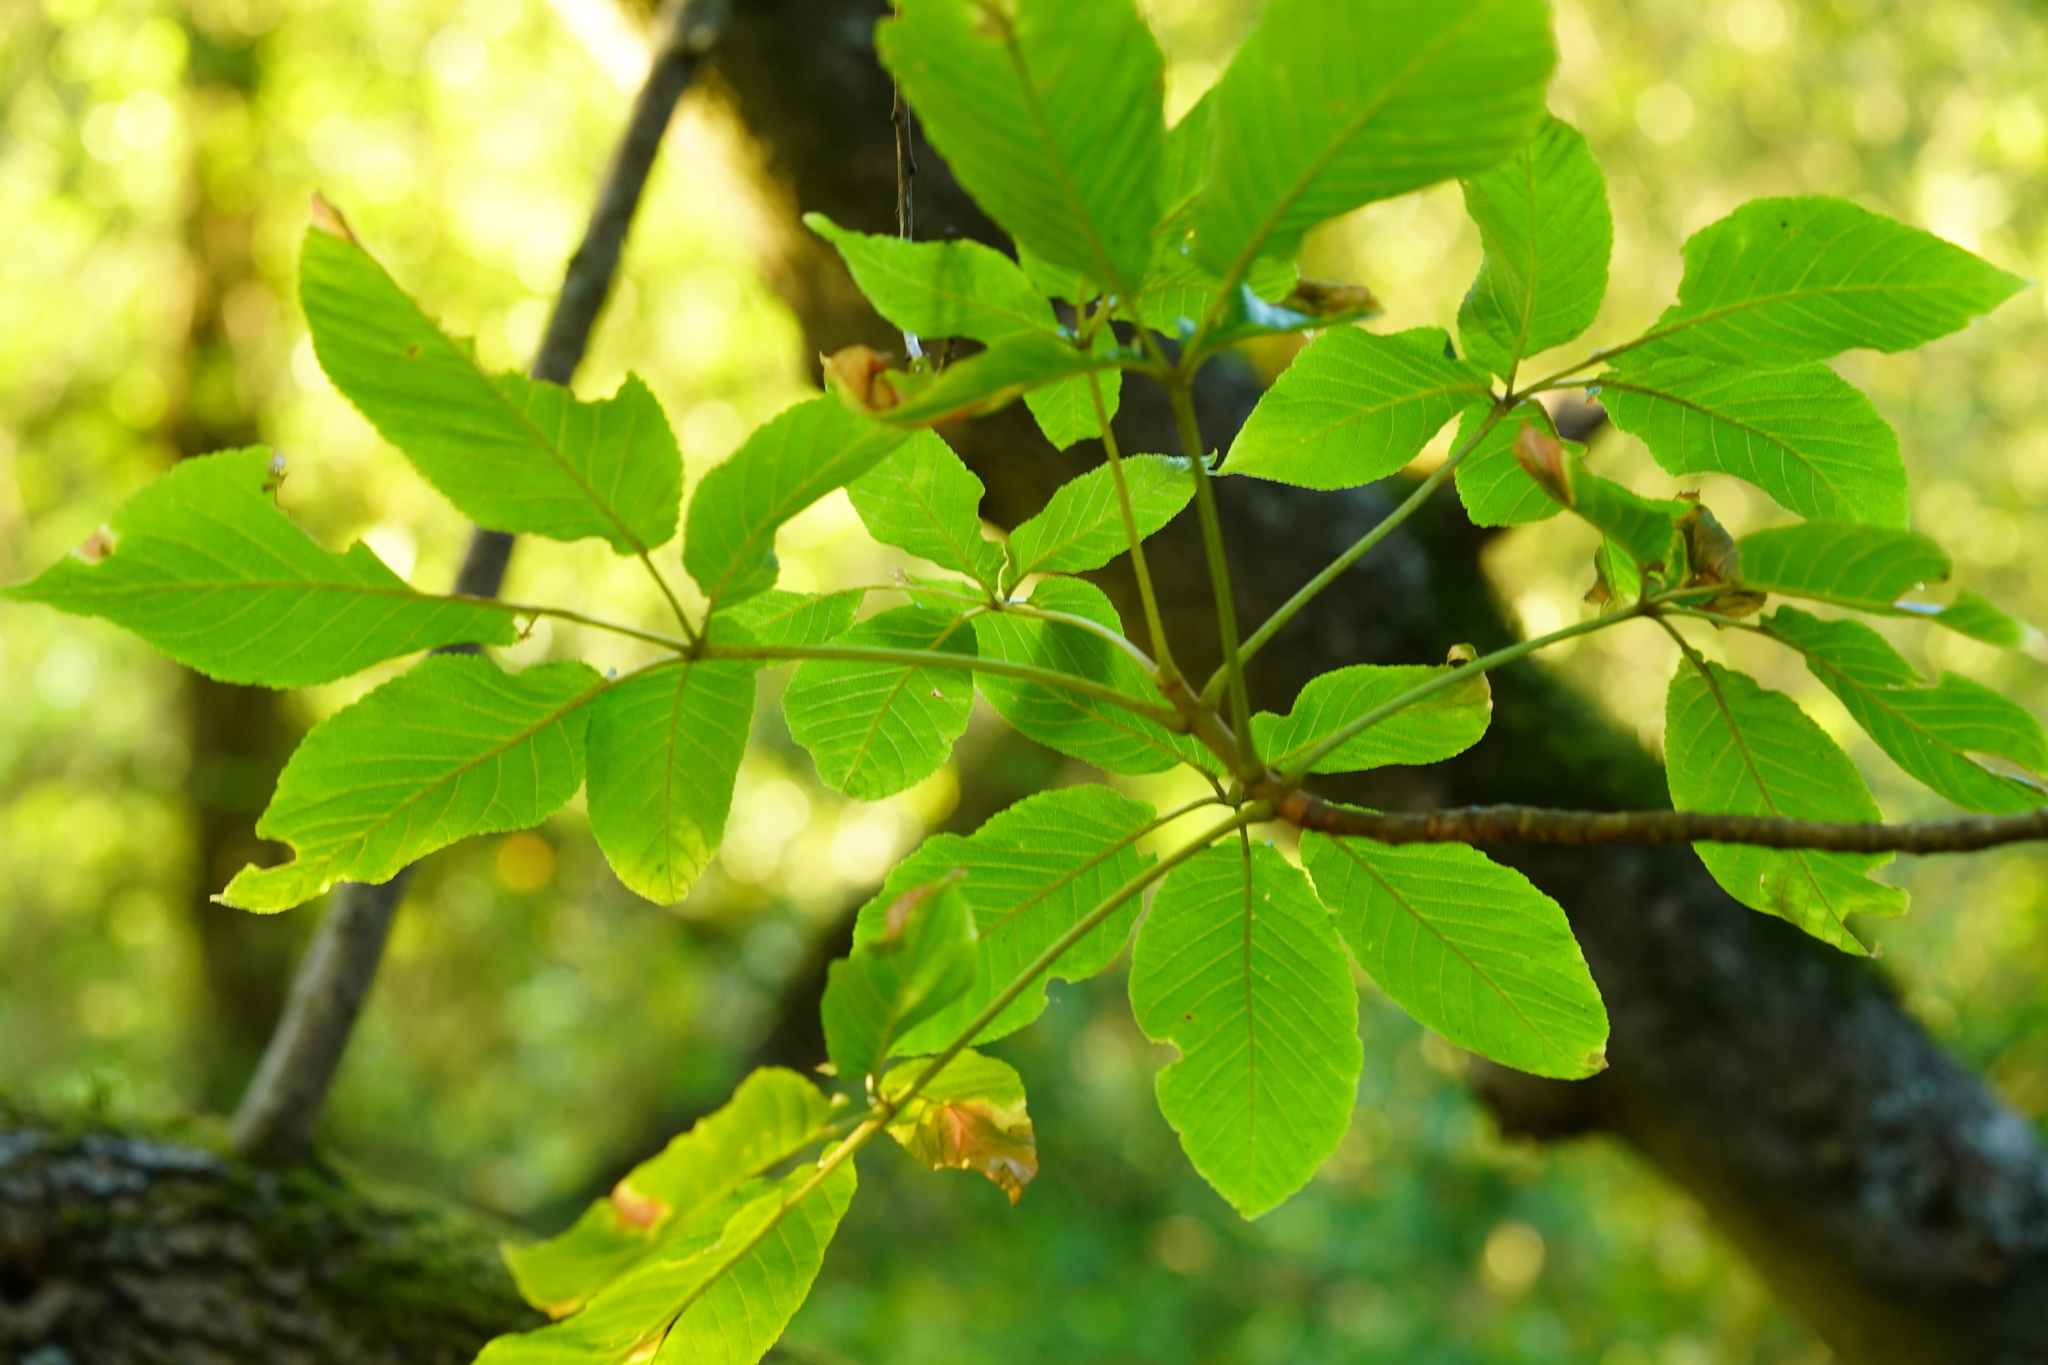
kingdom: Plantae
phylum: Tracheophyta
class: Magnoliopsida
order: Sapindales
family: Sapindaceae
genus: Aesculus
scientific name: Aesculus californica
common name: California buckeye
